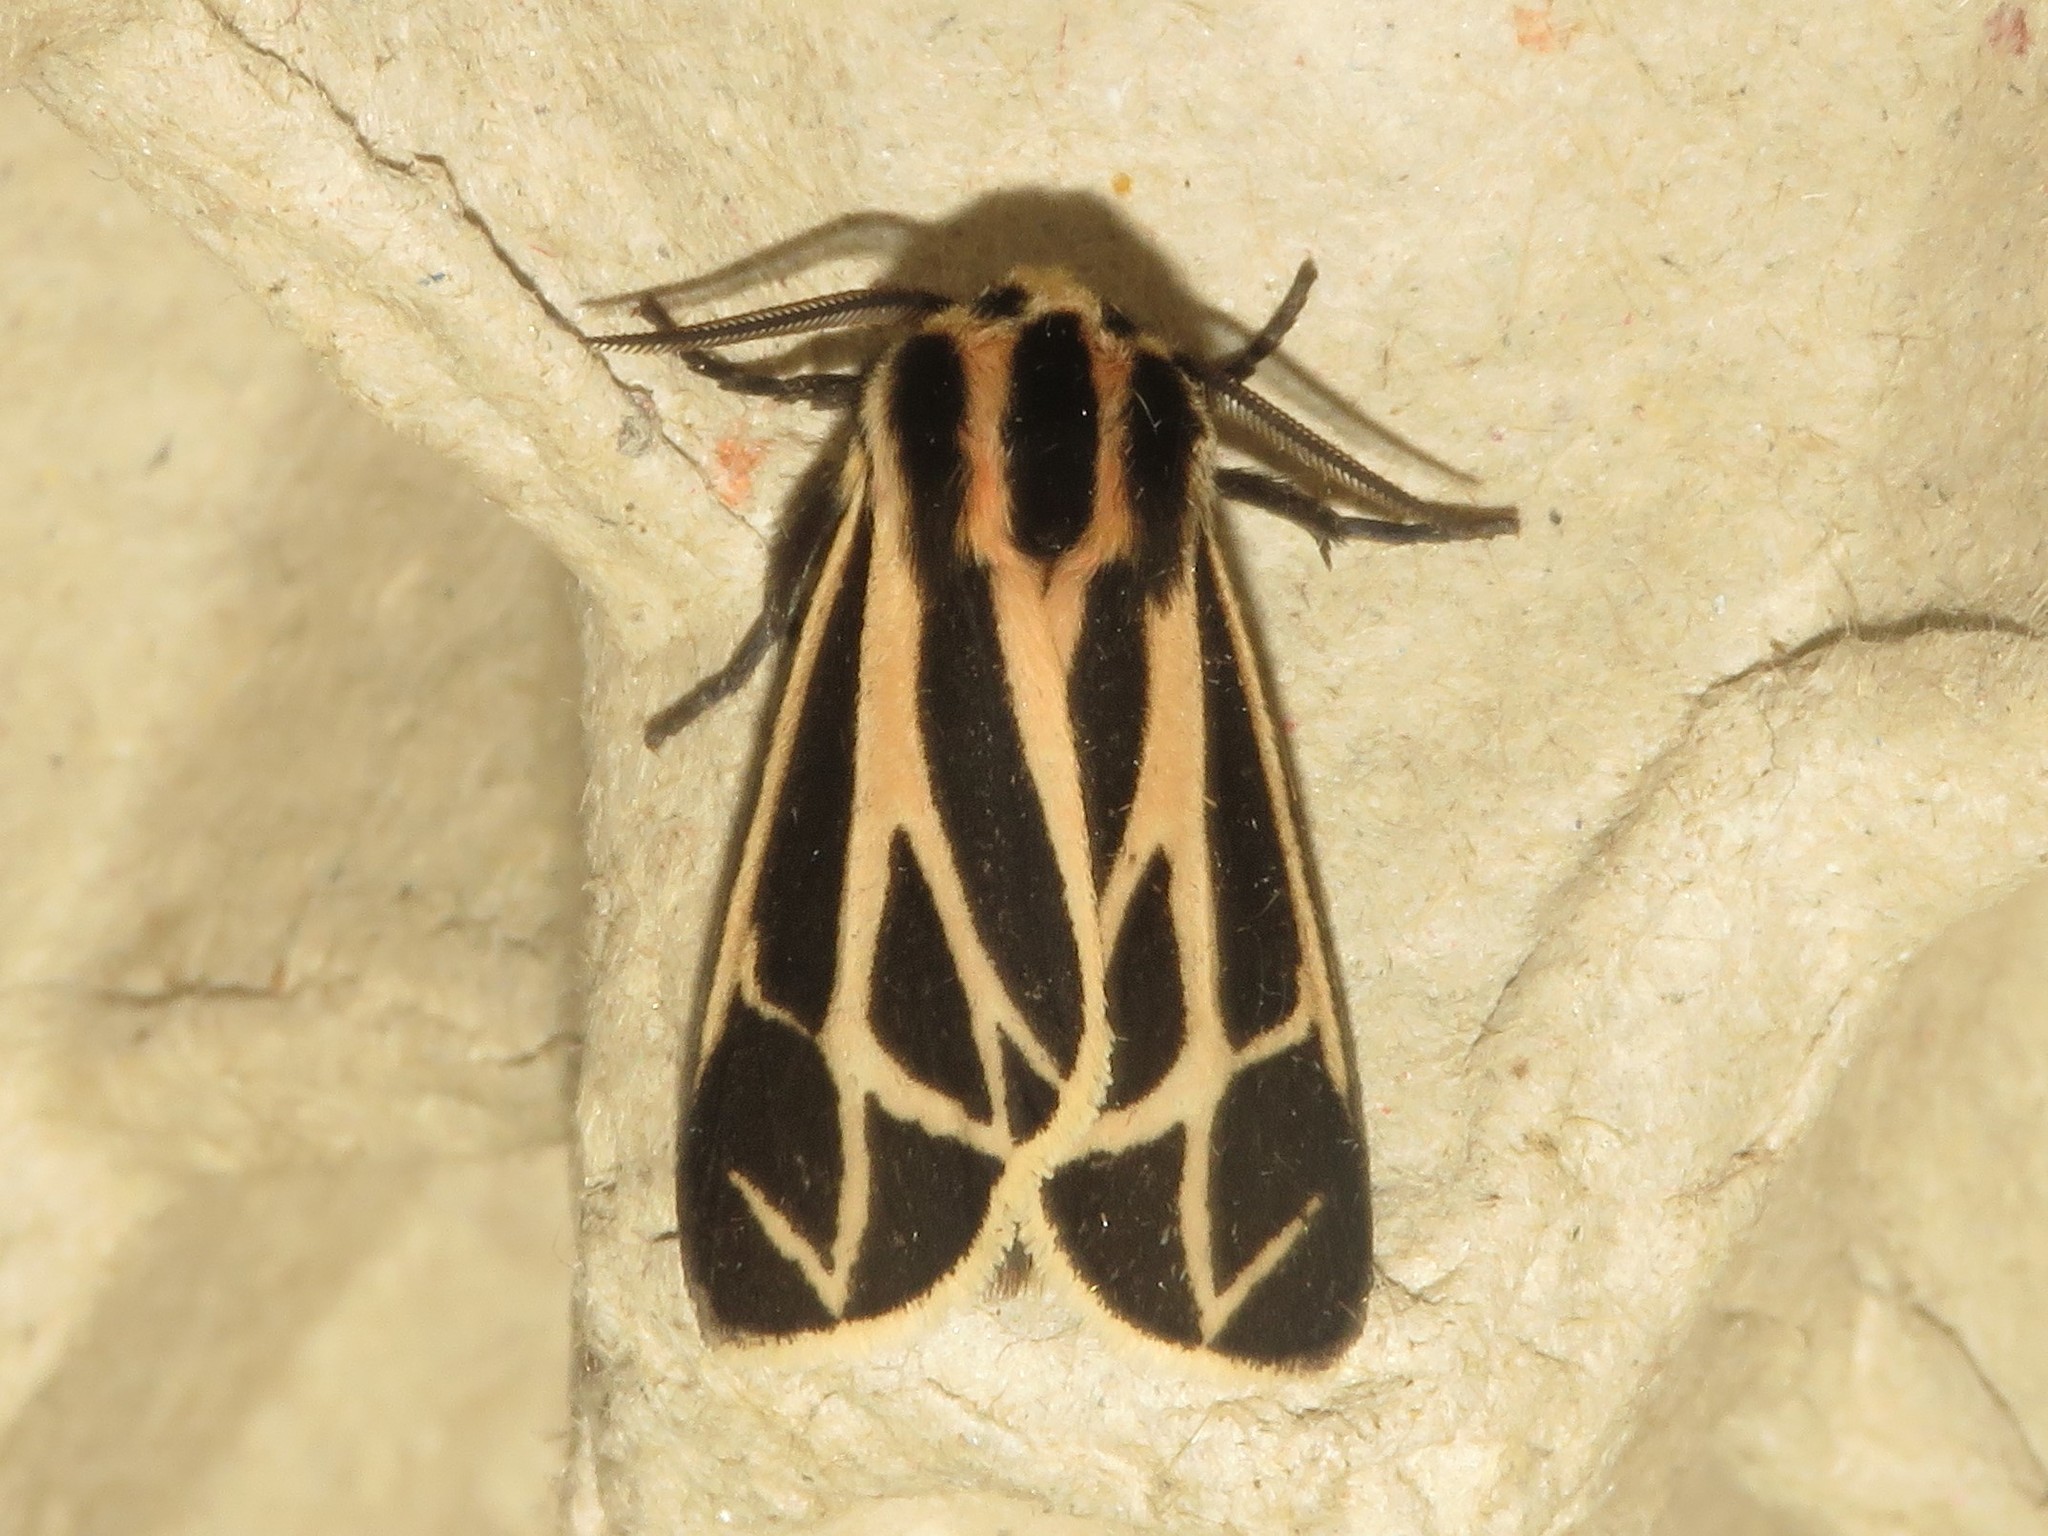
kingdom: Animalia
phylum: Arthropoda
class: Insecta
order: Lepidoptera
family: Erebidae
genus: Apantesis
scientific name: Apantesis phalerata
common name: Harnessed tiger moth
